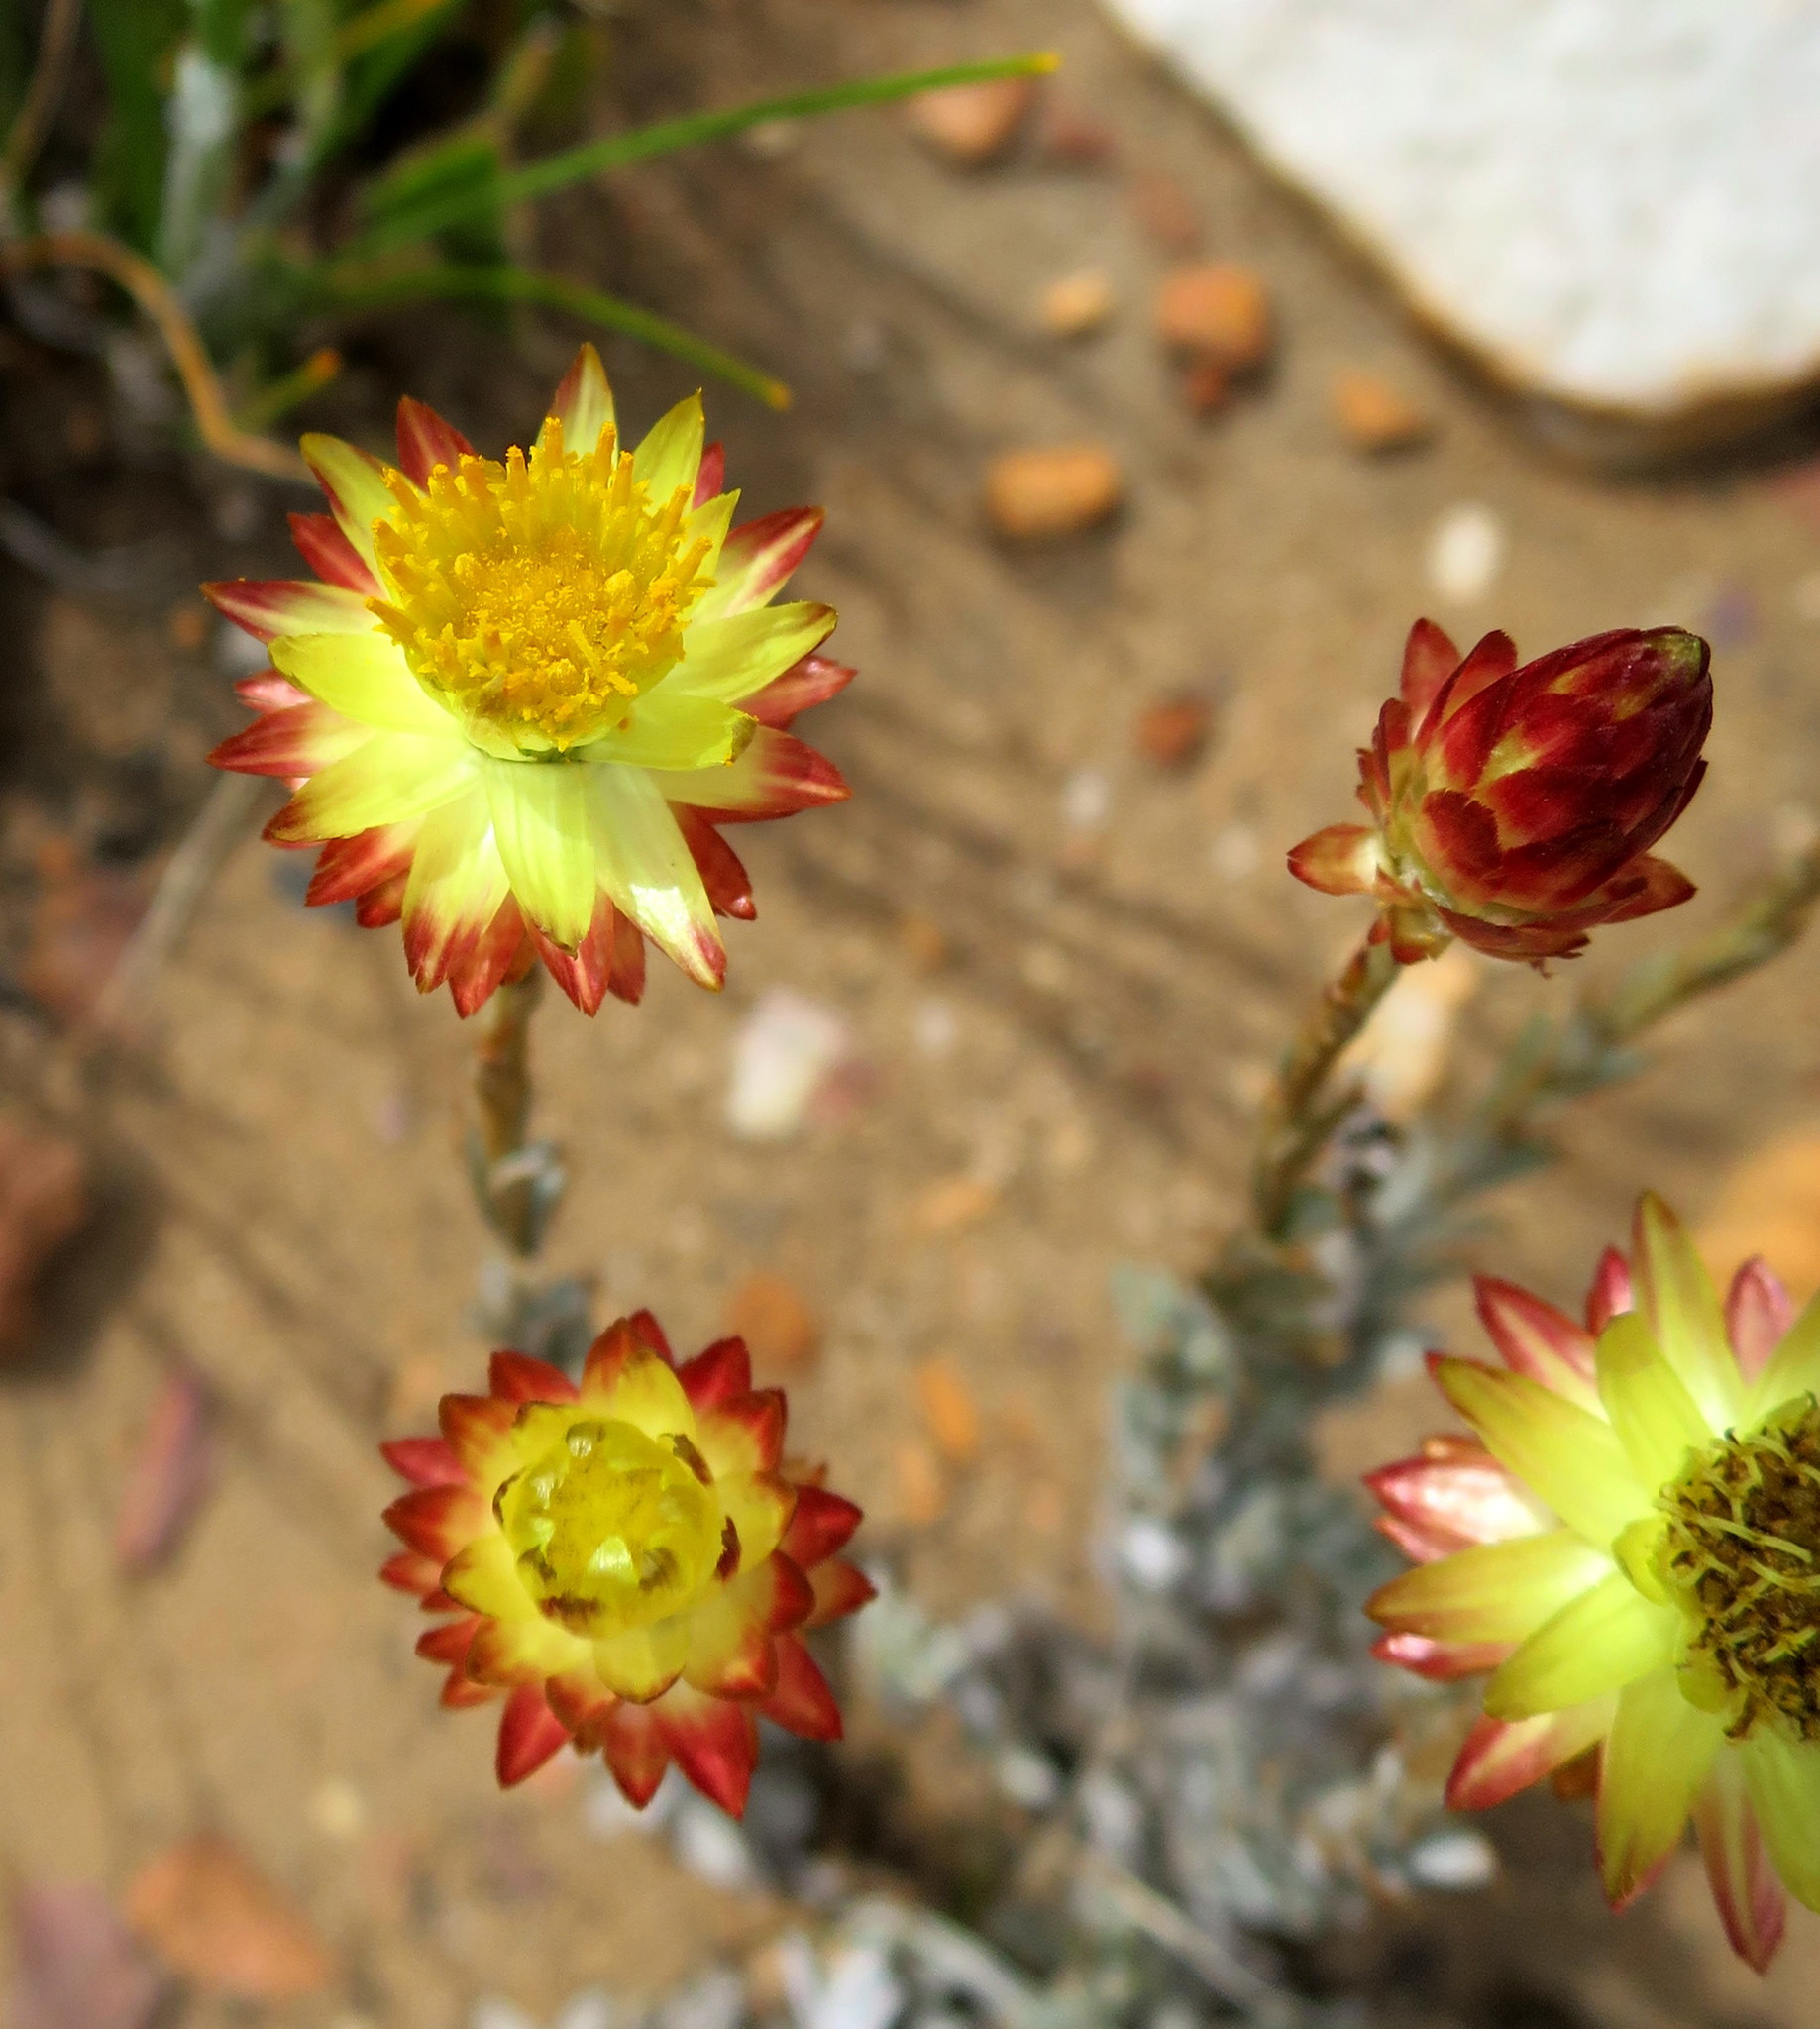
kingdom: Plantae
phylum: Tracheophyta
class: Magnoliopsida
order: Asterales
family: Asteraceae
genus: Syncarpha
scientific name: Syncarpha virgata
